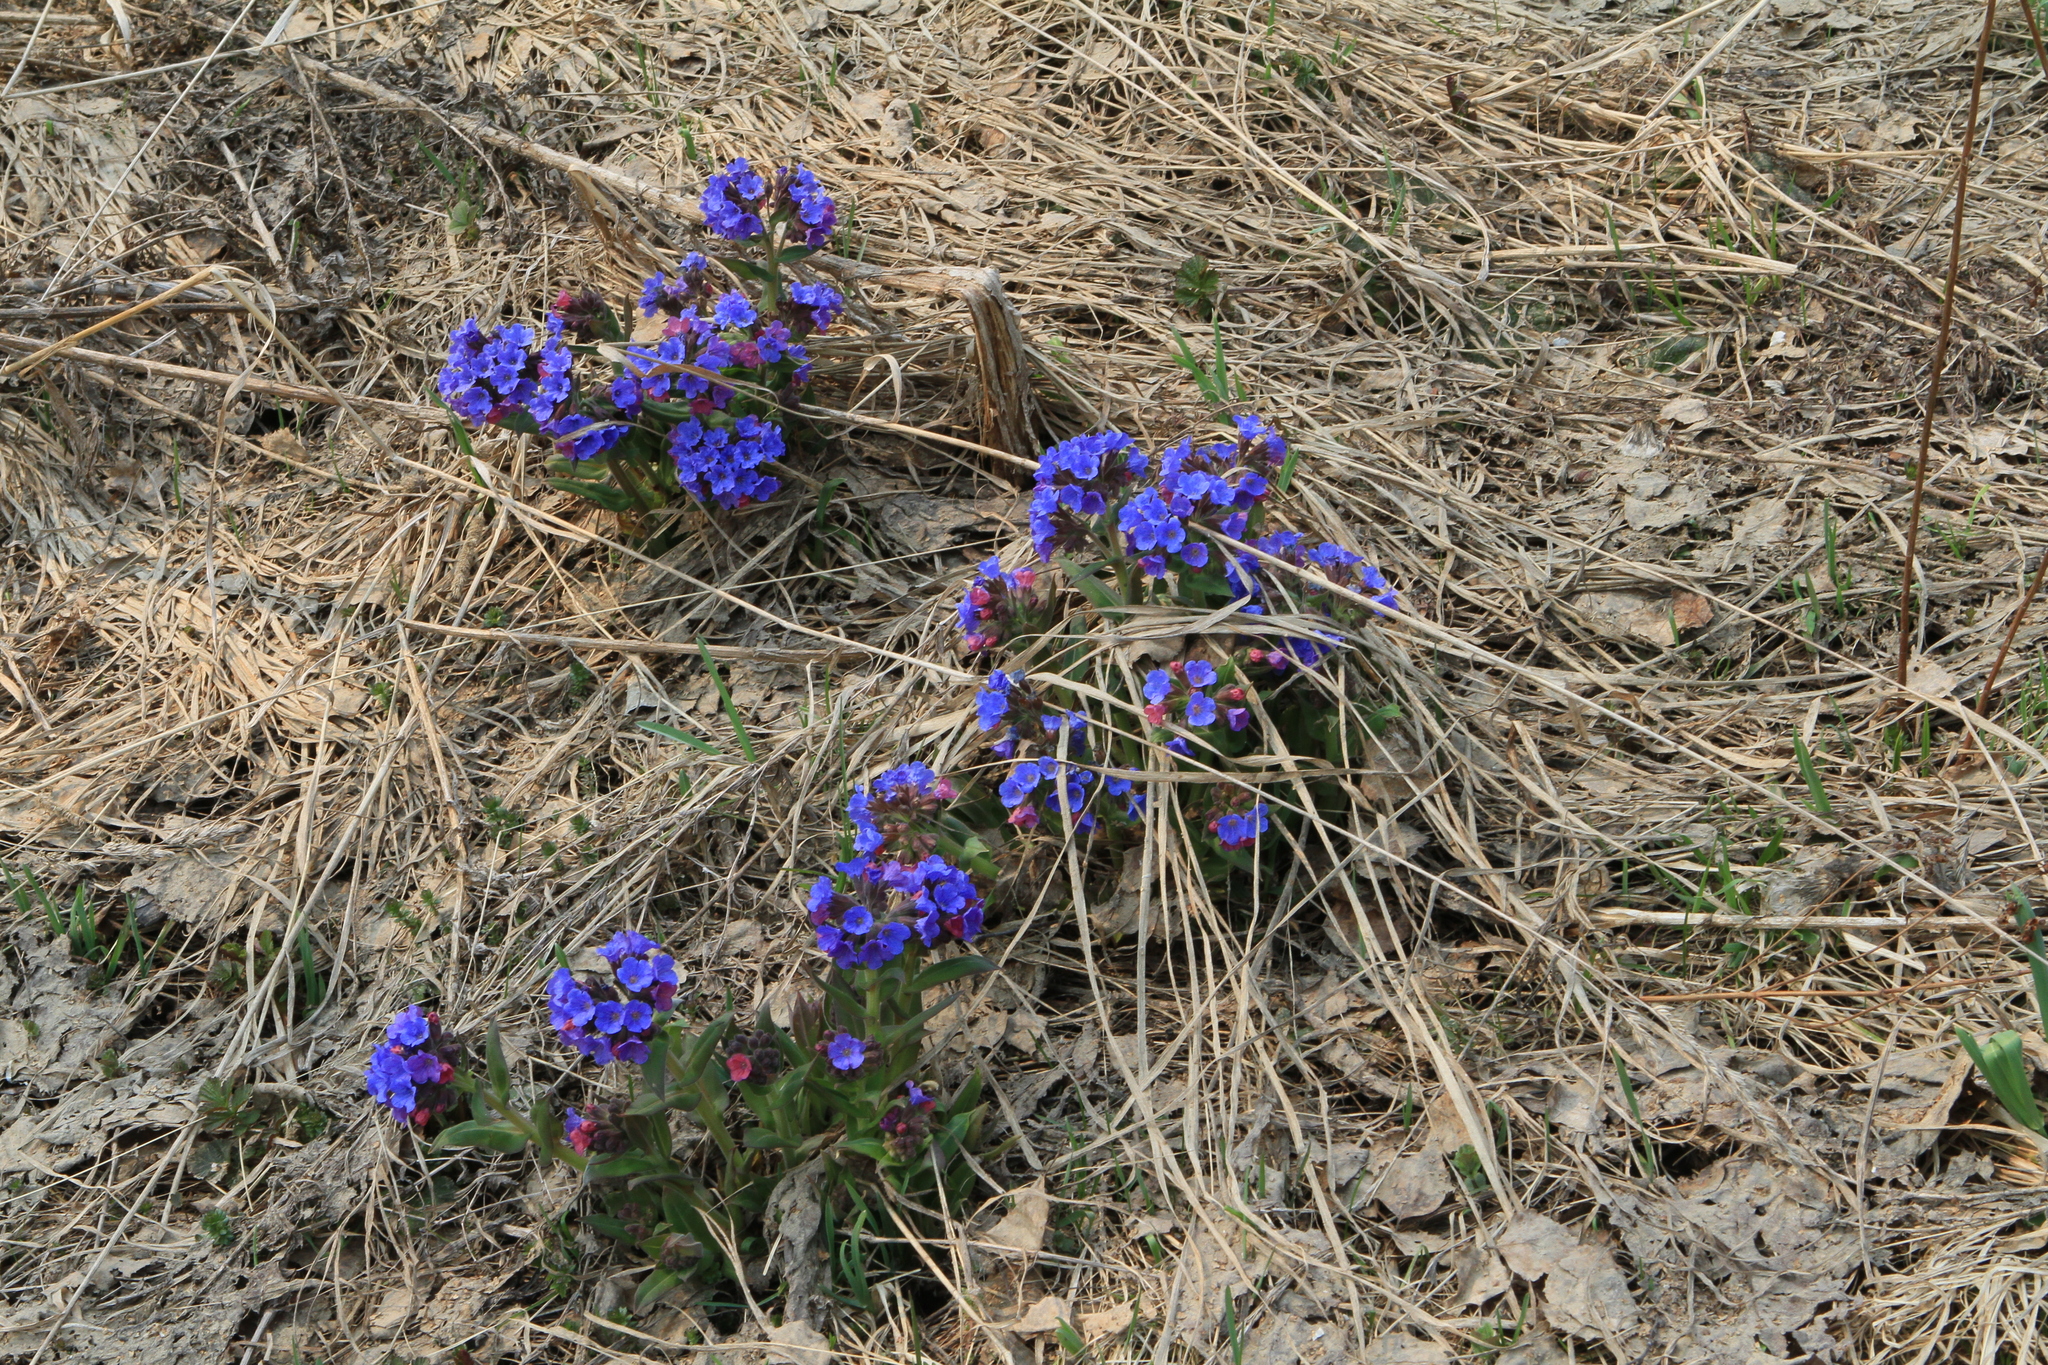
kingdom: Plantae
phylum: Tracheophyta
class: Magnoliopsida
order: Boraginales
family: Boraginaceae
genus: Pulmonaria
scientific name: Pulmonaria mollis
